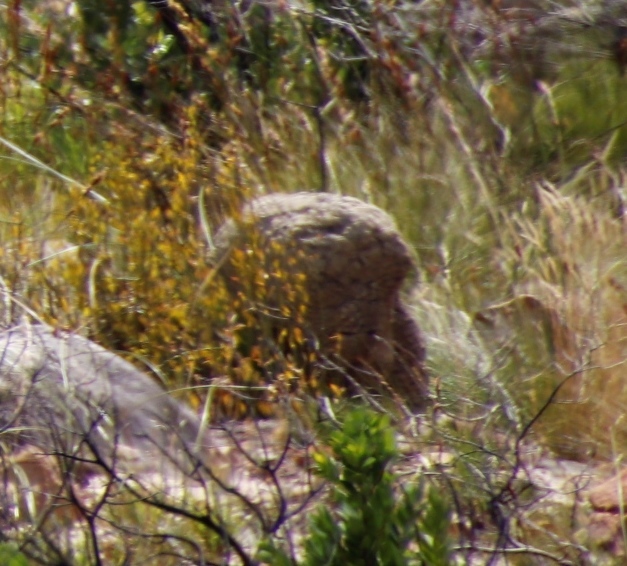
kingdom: Animalia
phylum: Chordata
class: Mammalia
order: Artiodactyla
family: Bovidae
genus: Sylvicapra
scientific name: Sylvicapra grimmia
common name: Bush duiker
